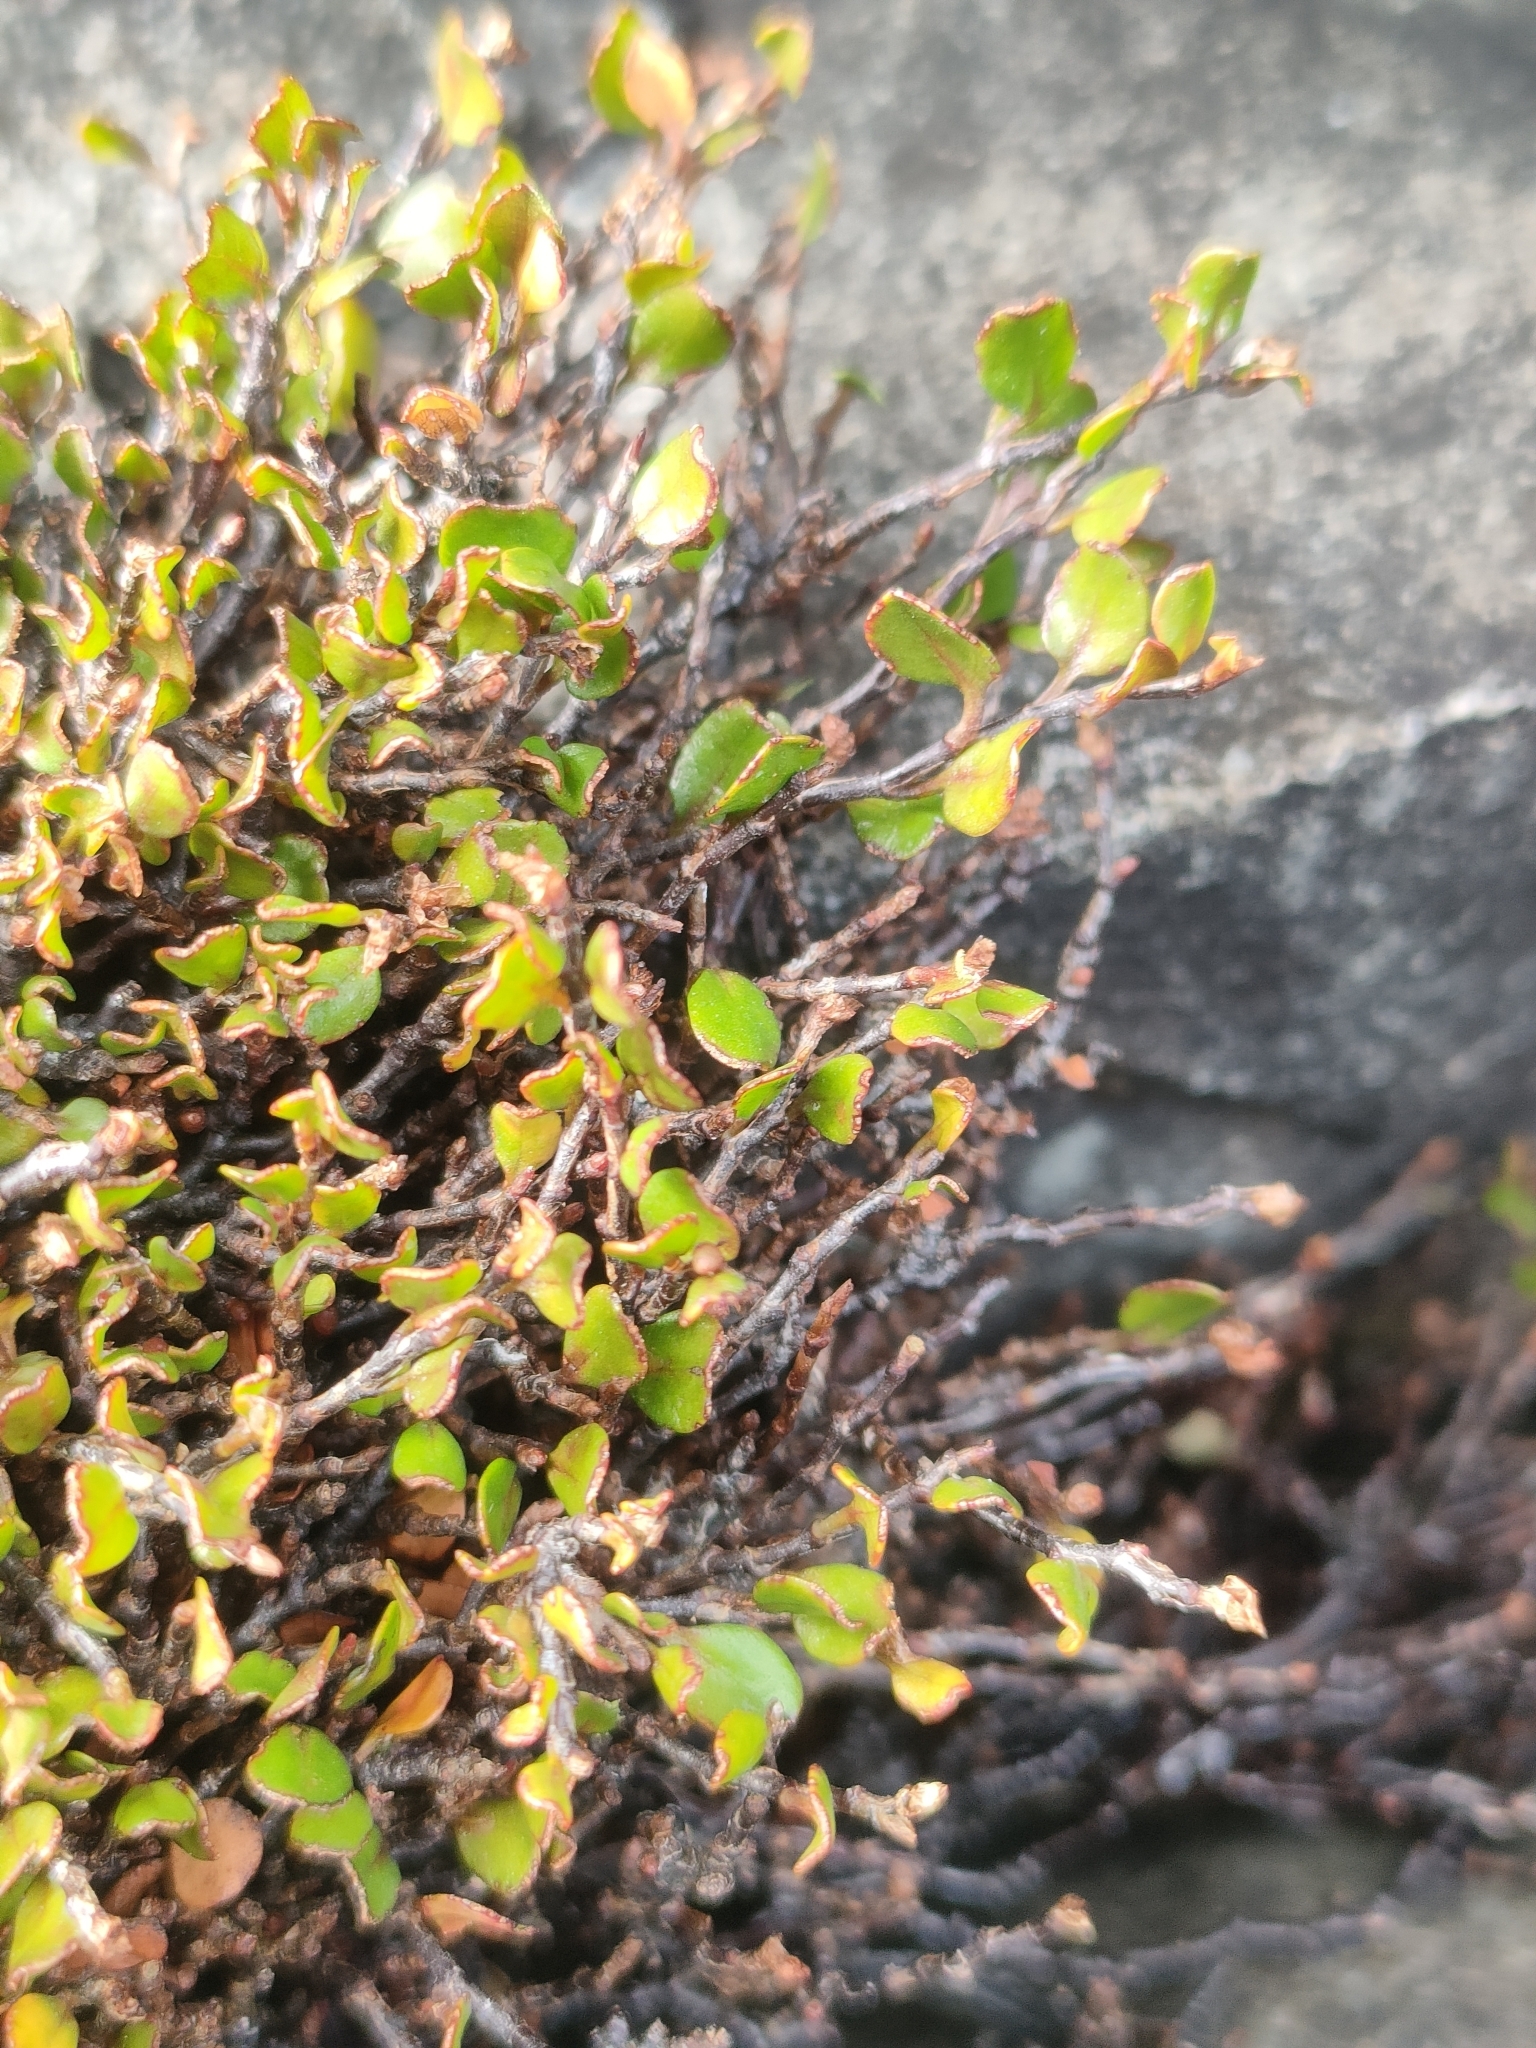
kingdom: Plantae
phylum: Tracheophyta
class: Magnoliopsida
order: Caryophyllales
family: Polygonaceae
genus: Muehlenbeckia
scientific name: Muehlenbeckia axillaris
